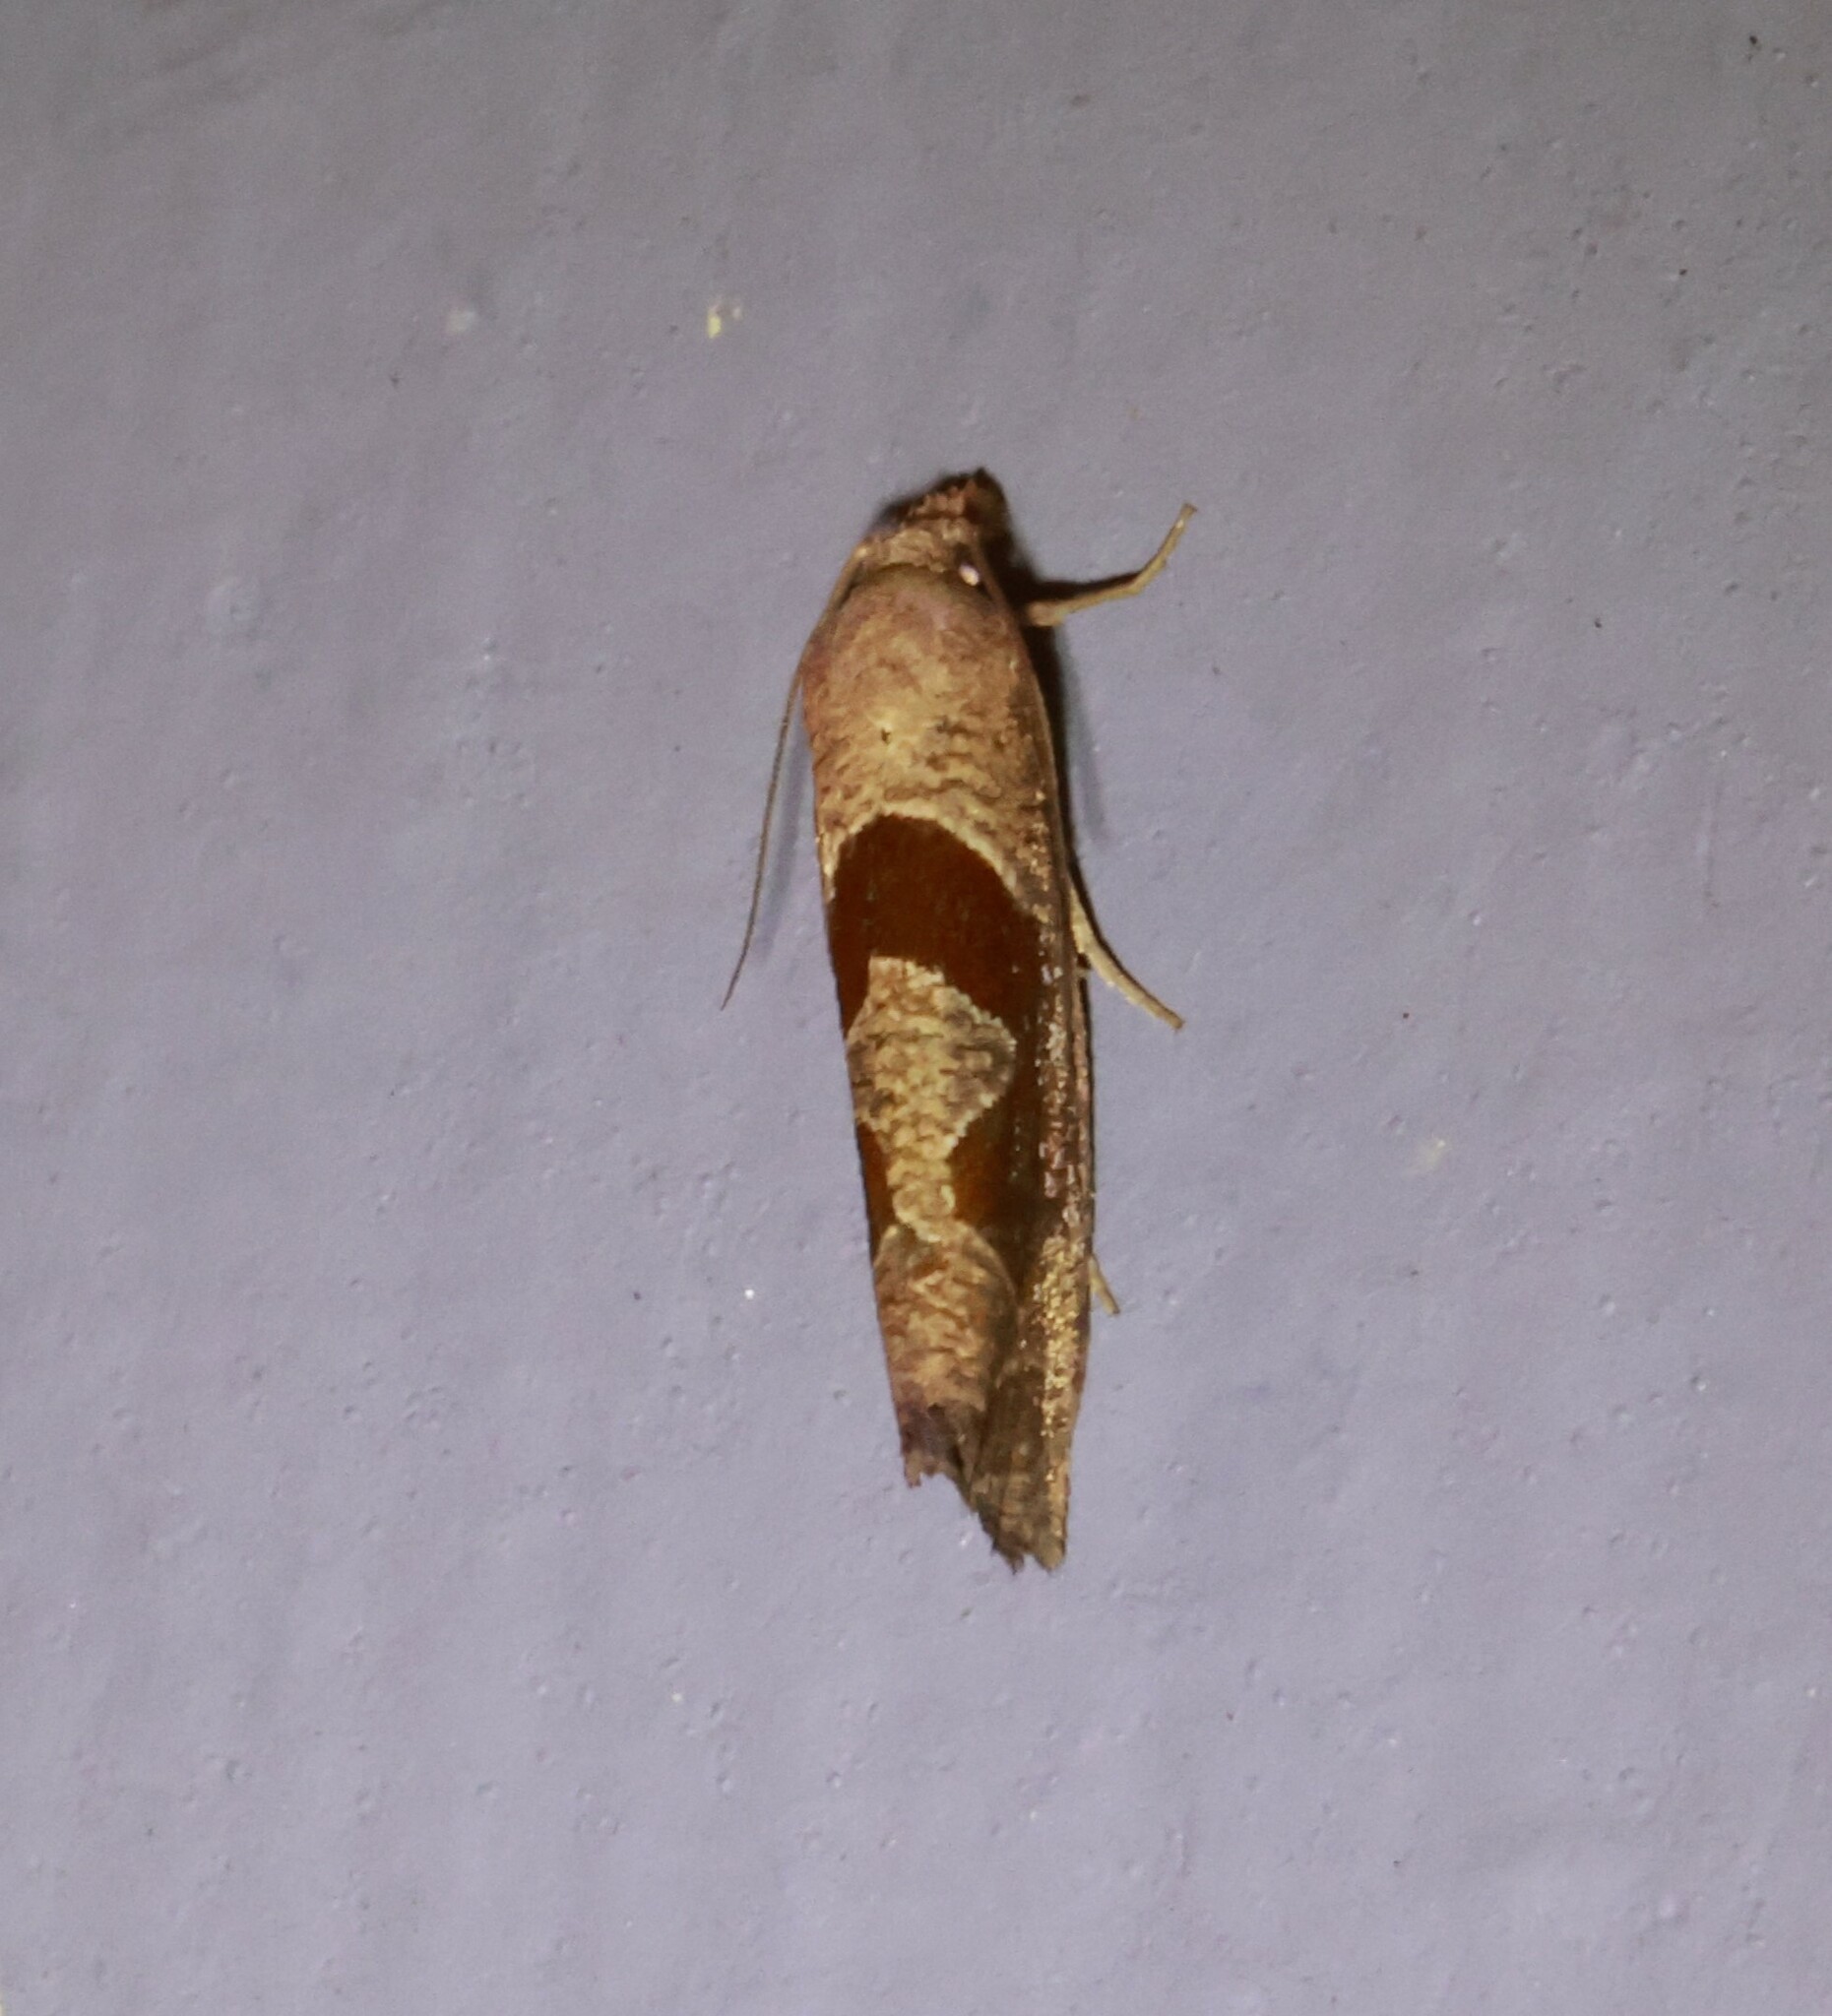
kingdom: Animalia
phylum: Arthropoda
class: Insecta
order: Lepidoptera
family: Tortricidae
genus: Pelochrista
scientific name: Pelochrista similiana
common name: Similar eucosma
